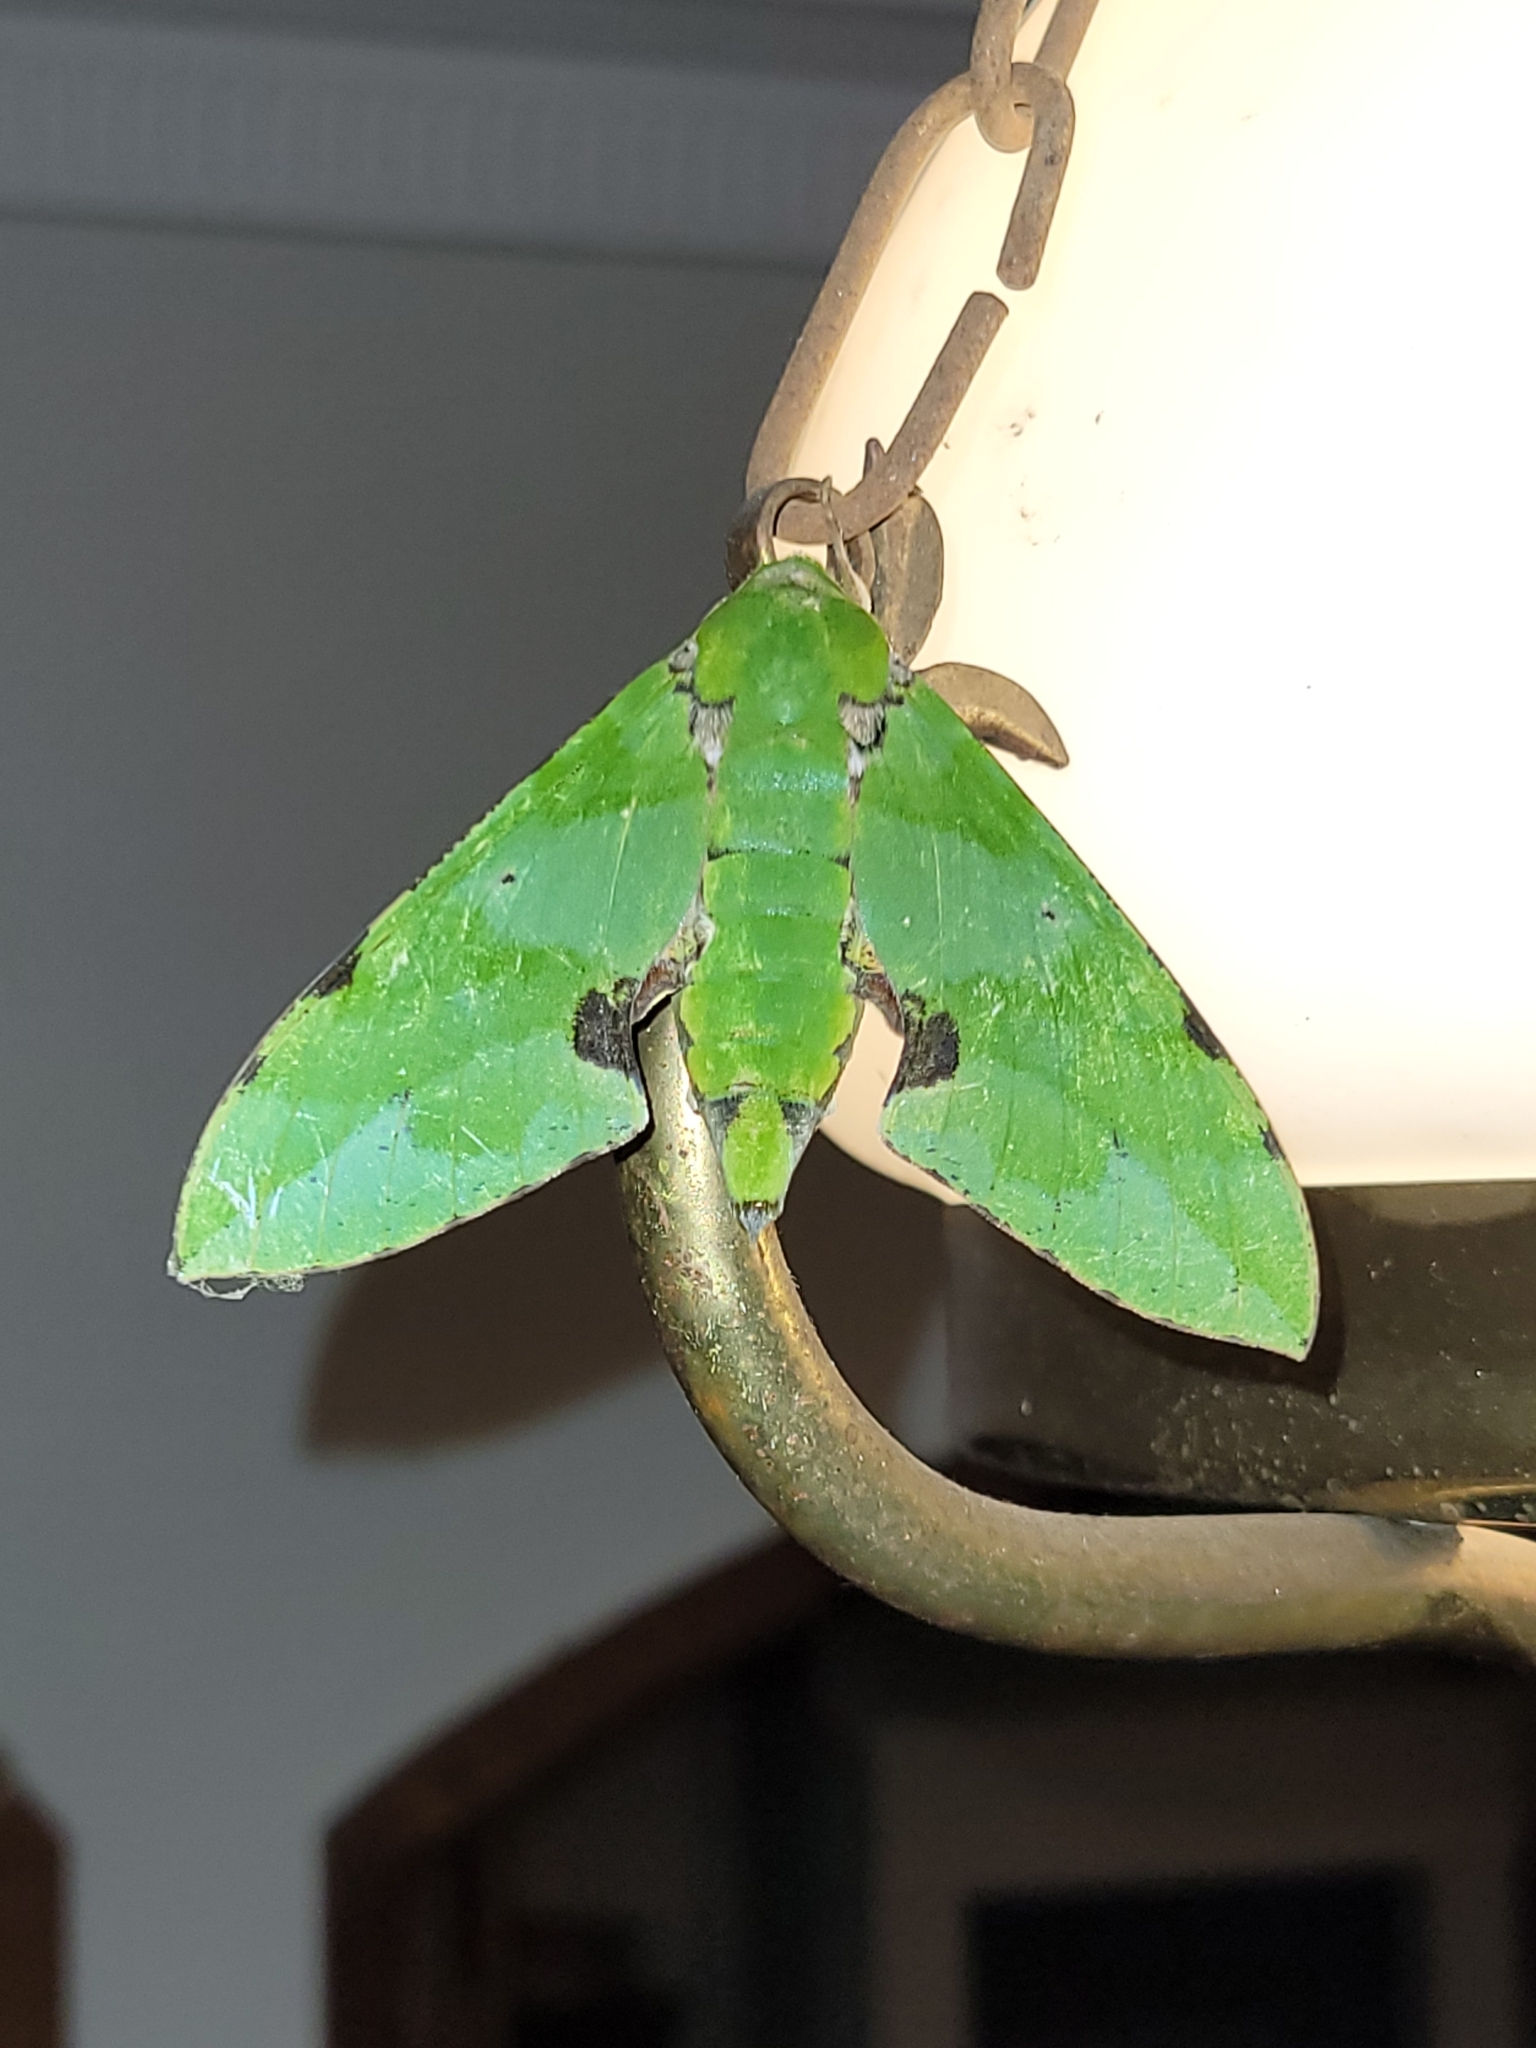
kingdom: Animalia
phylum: Arthropoda
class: Insecta
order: Lepidoptera
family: Sphingidae
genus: Euchloron
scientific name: Euchloron megaera
